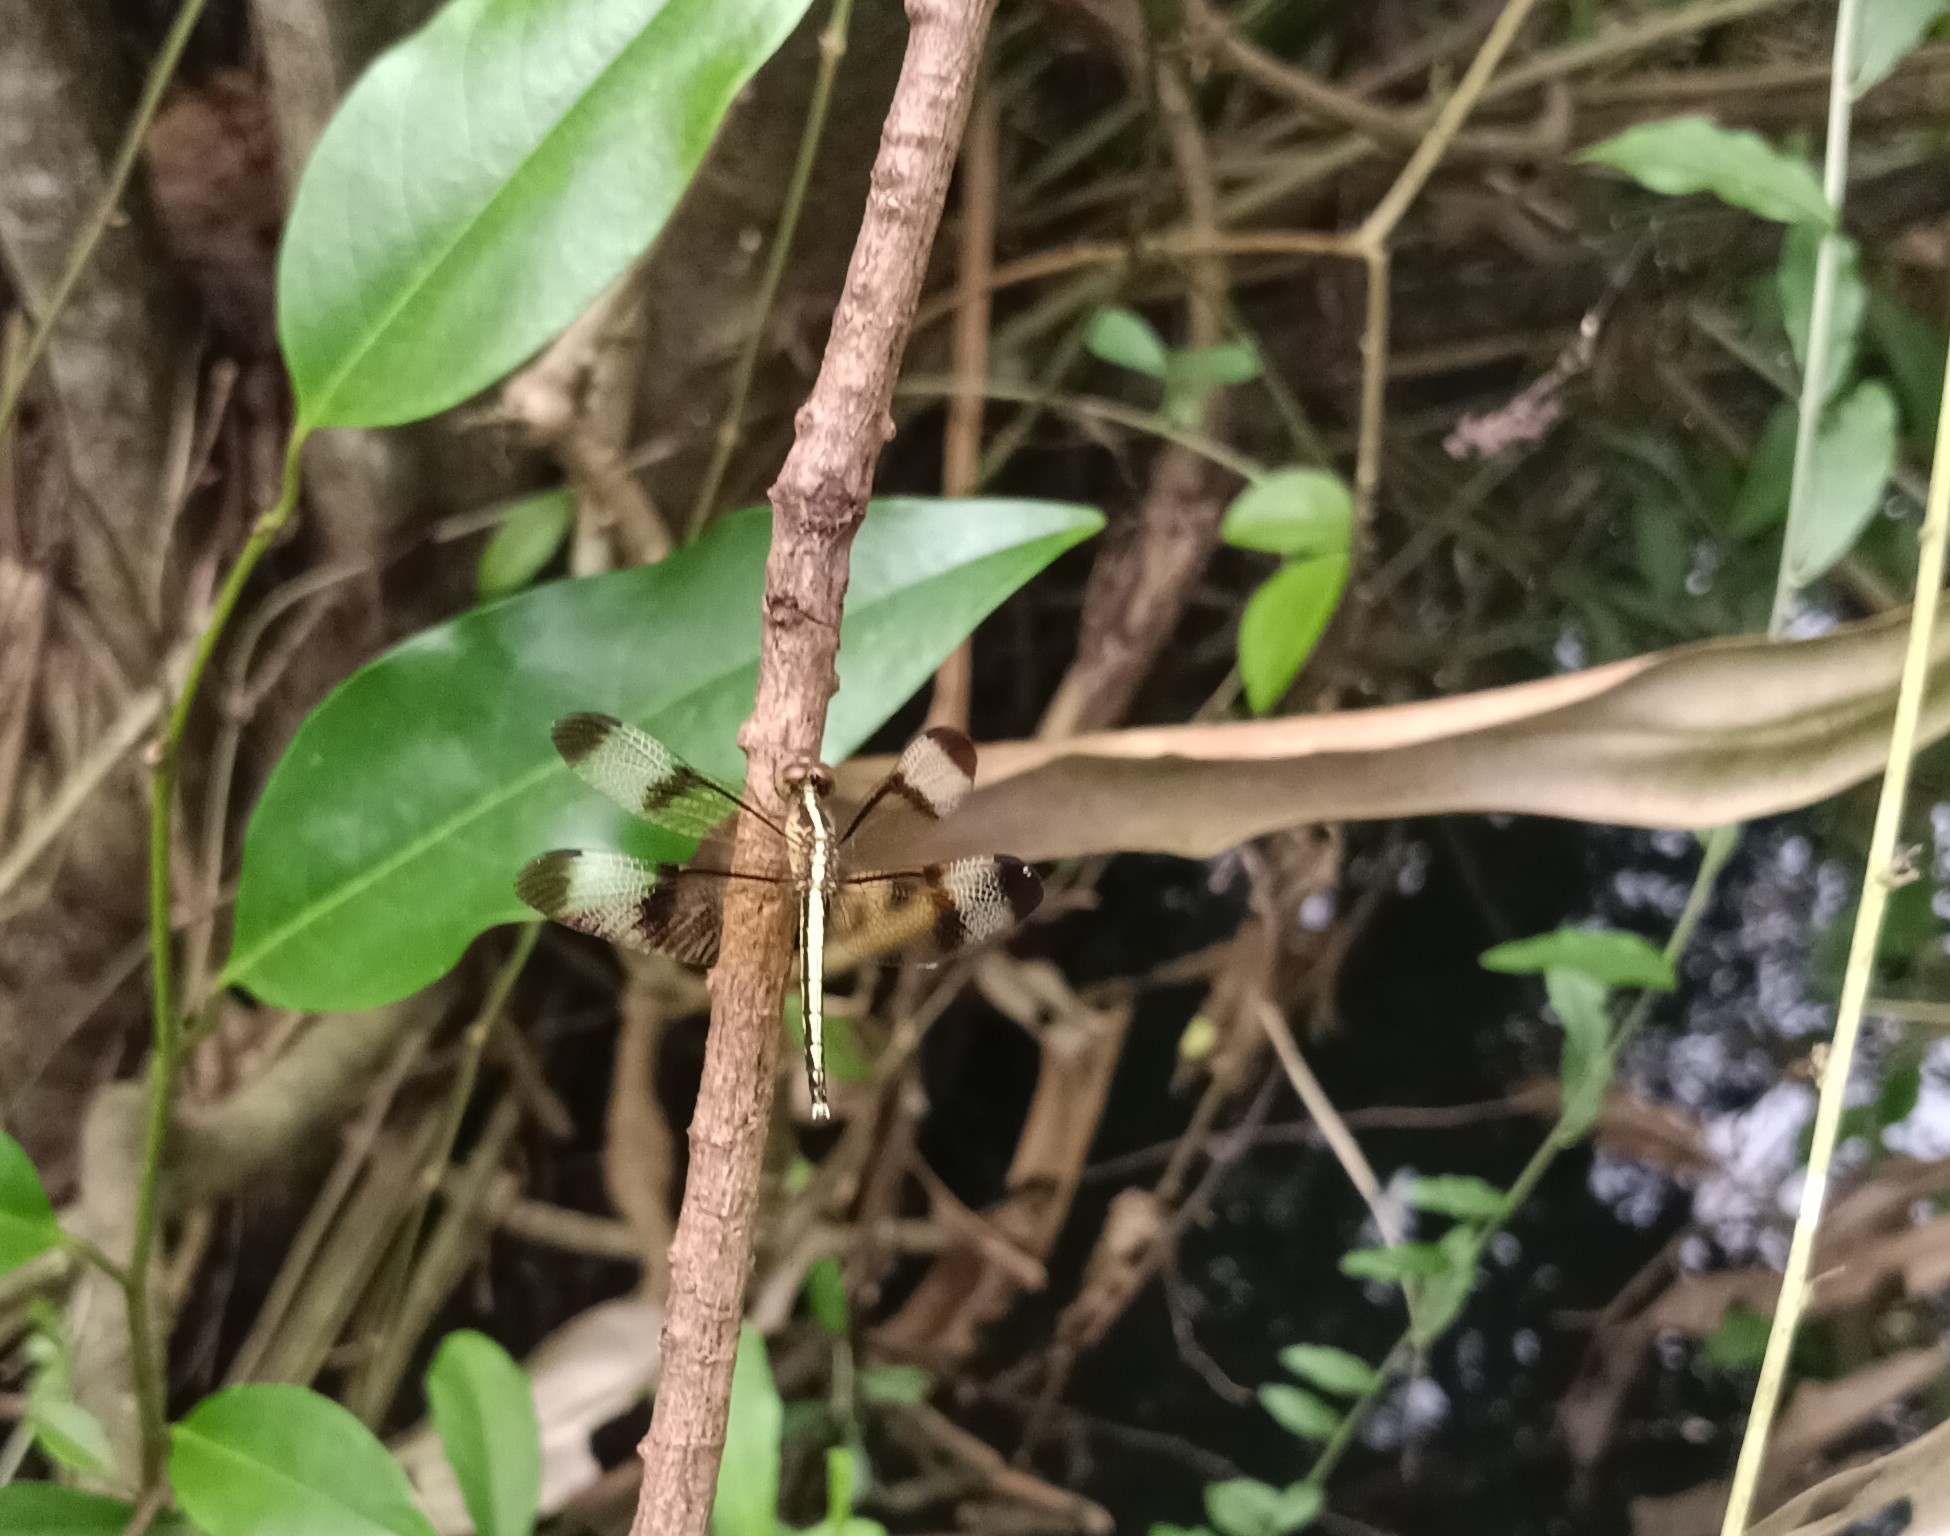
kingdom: Animalia
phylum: Arthropoda
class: Insecta
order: Odonata
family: Libellulidae
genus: Neurothemis
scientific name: Neurothemis tullia
